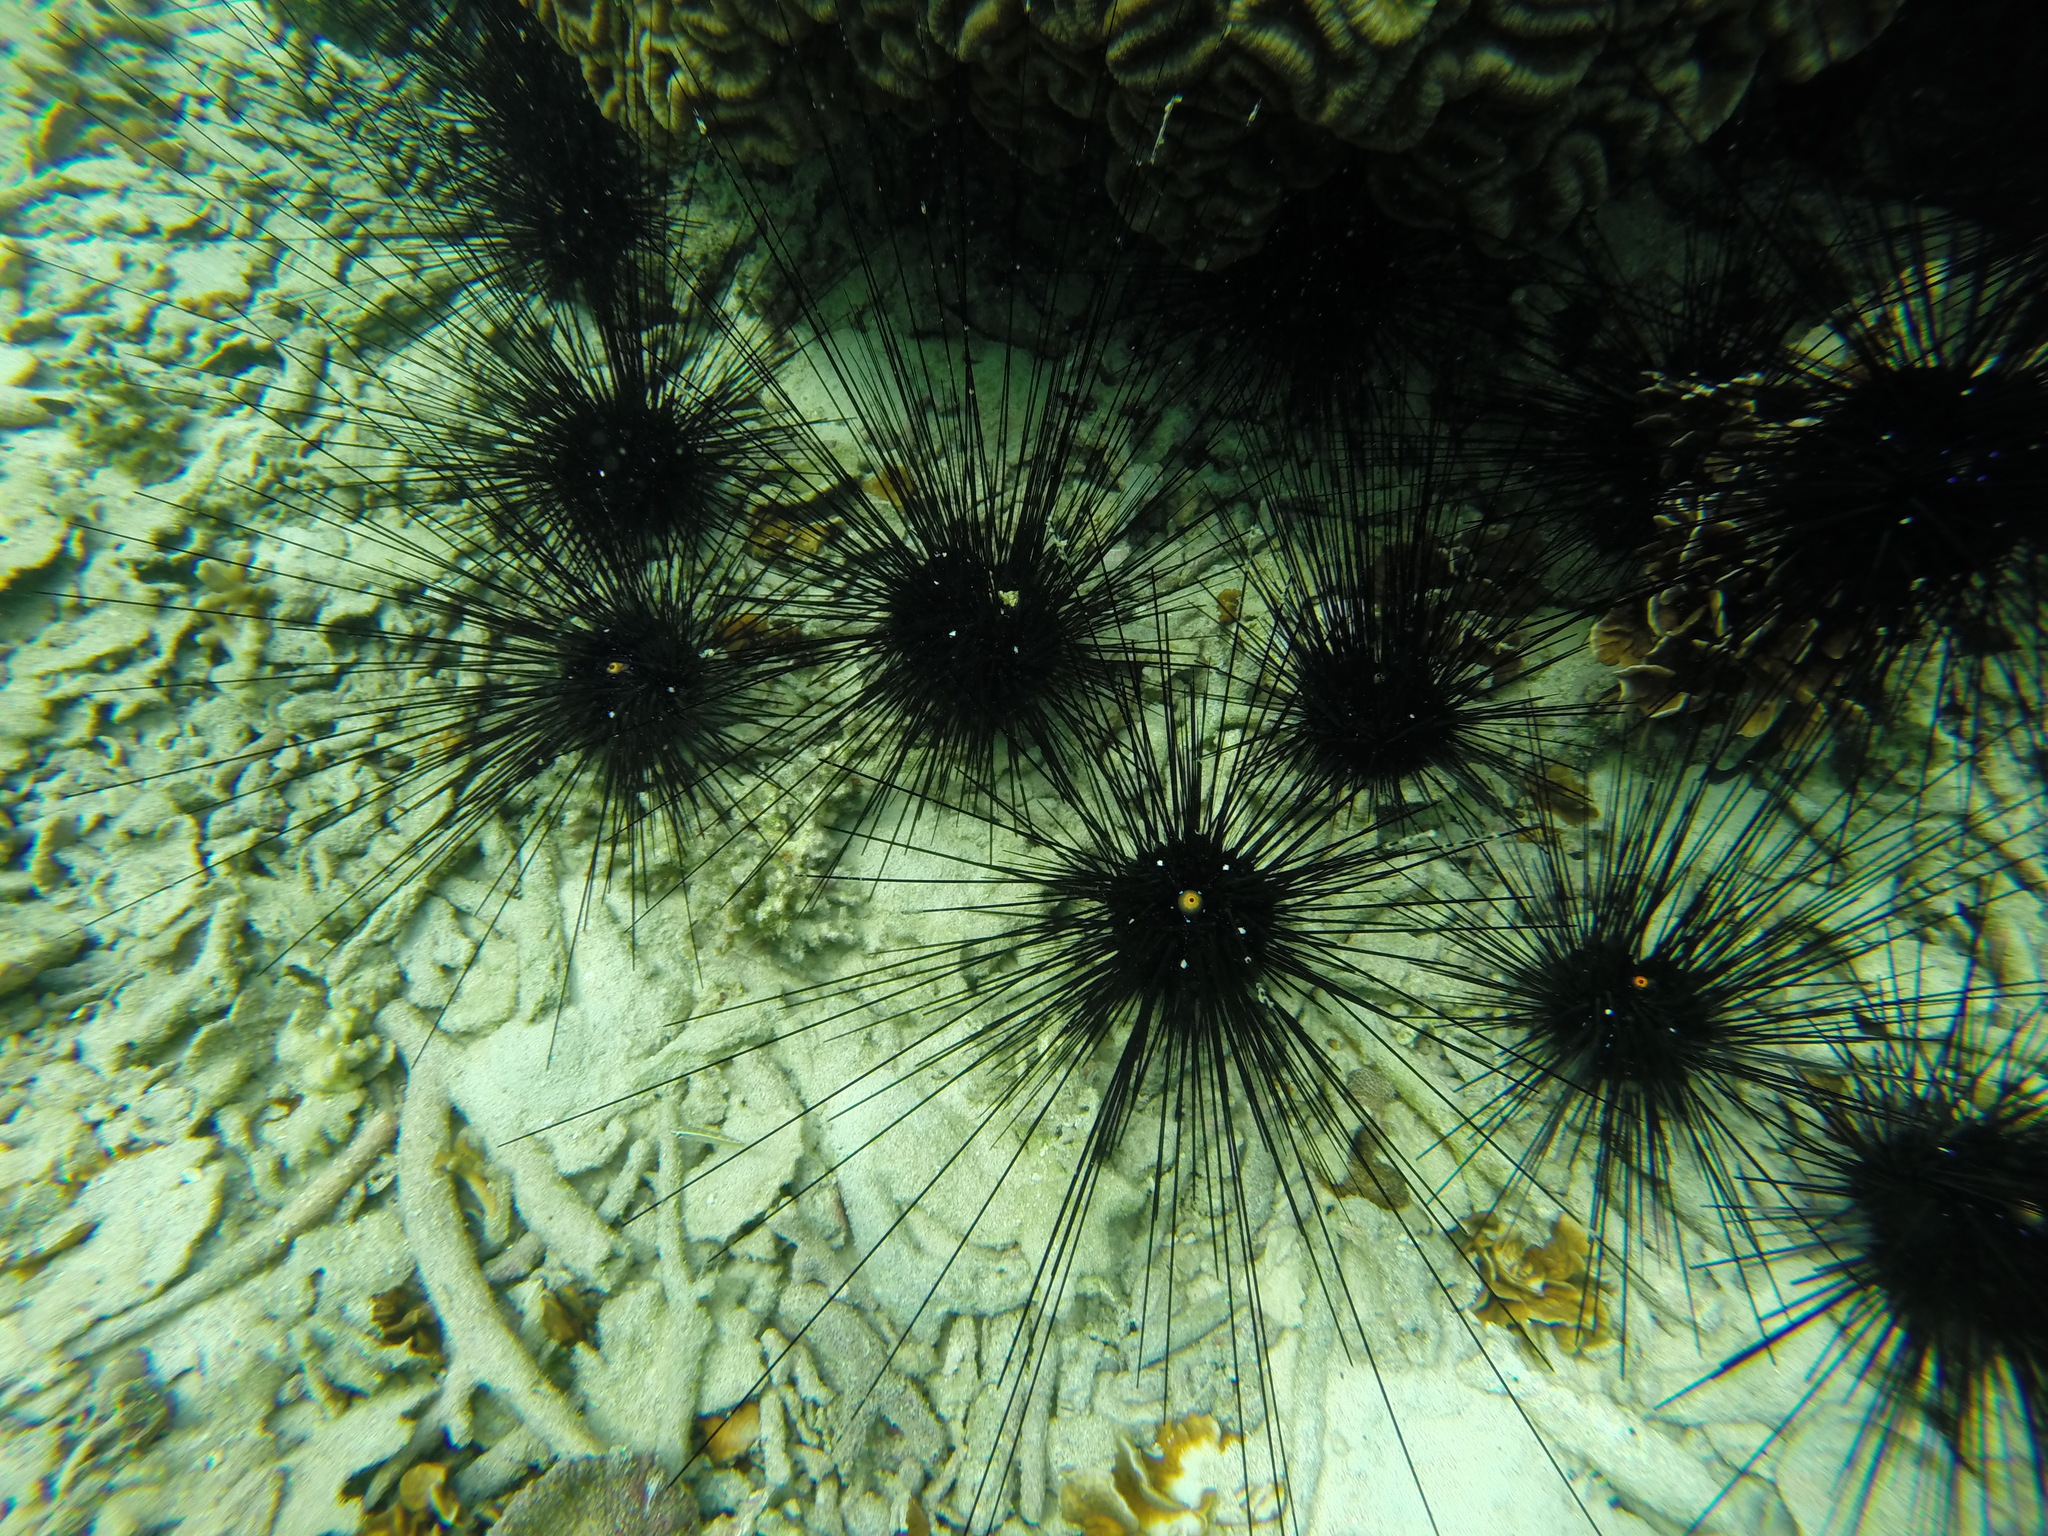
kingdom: Animalia
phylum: Echinodermata
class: Echinoidea
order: Diadematoida
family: Diadematidae
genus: Diadema
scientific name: Diadema setosum
